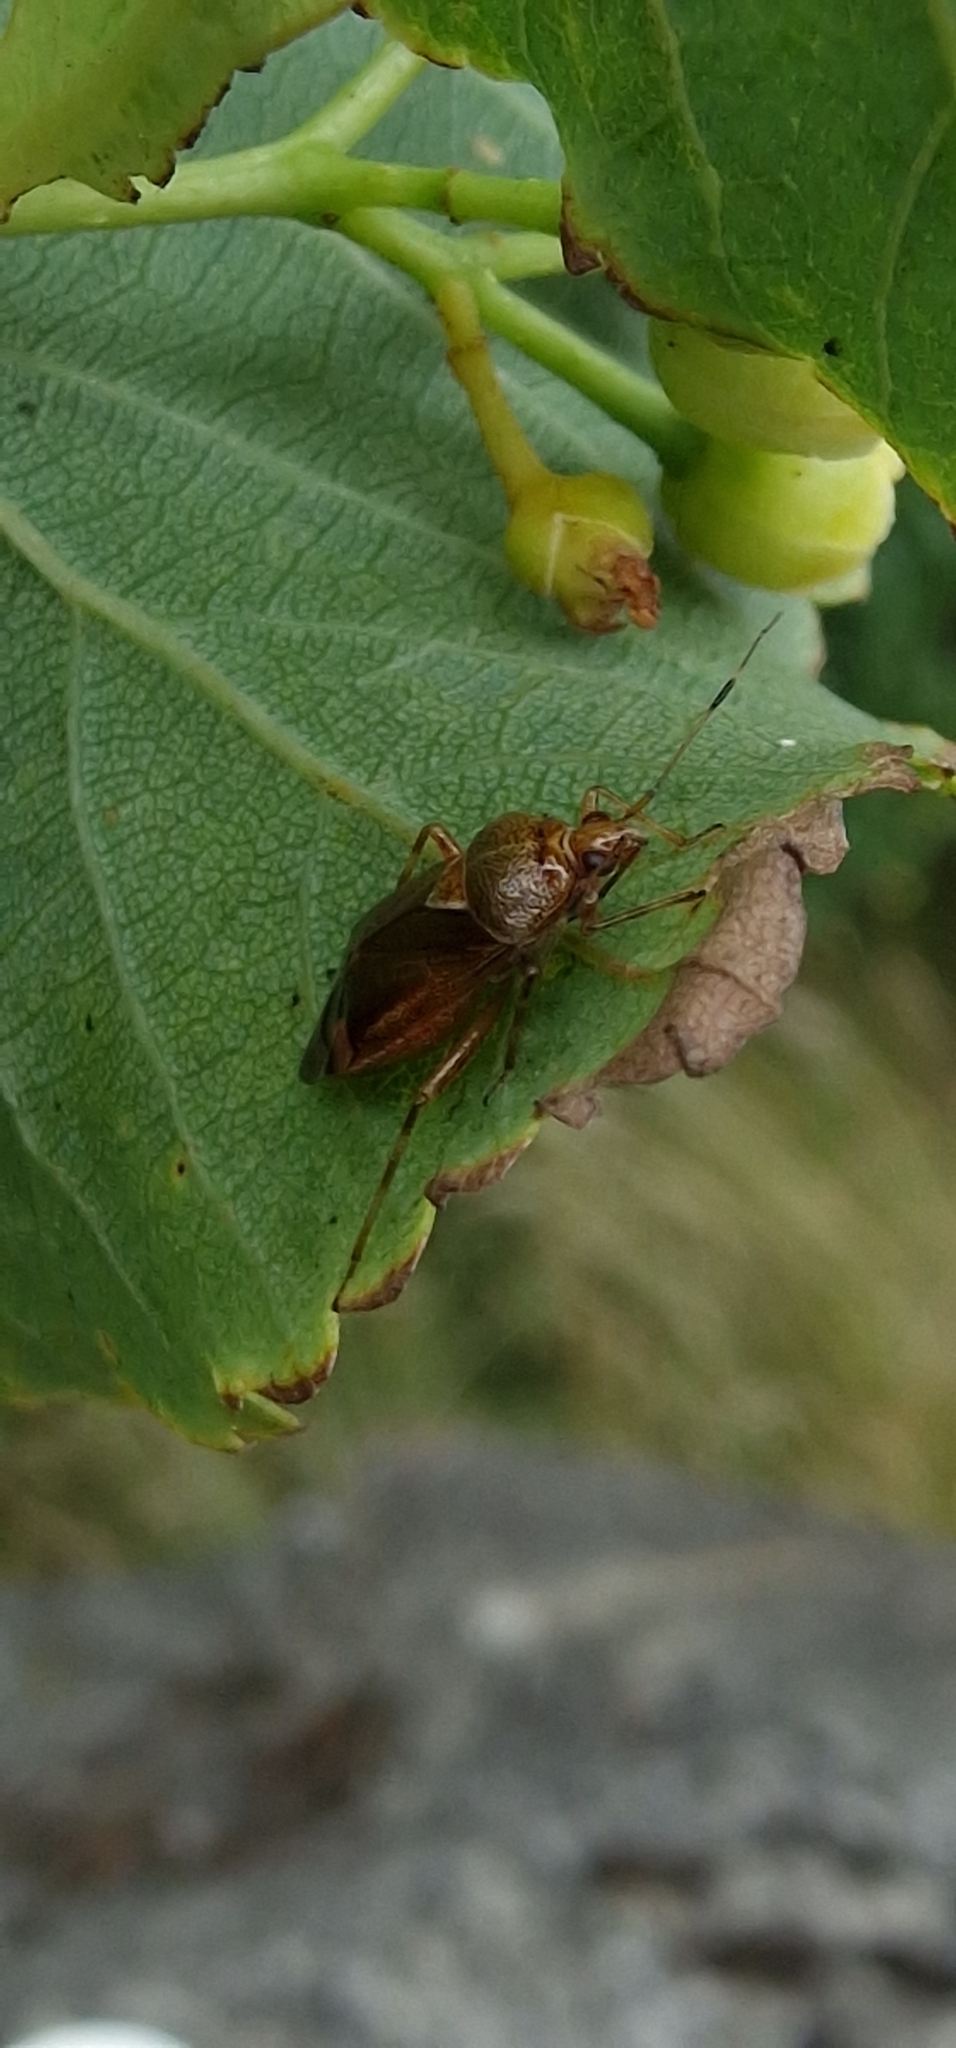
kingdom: Animalia
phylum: Arthropoda
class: Insecta
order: Hemiptera
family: Miridae
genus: Deraeocoris
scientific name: Deraeocoris flavilinea
